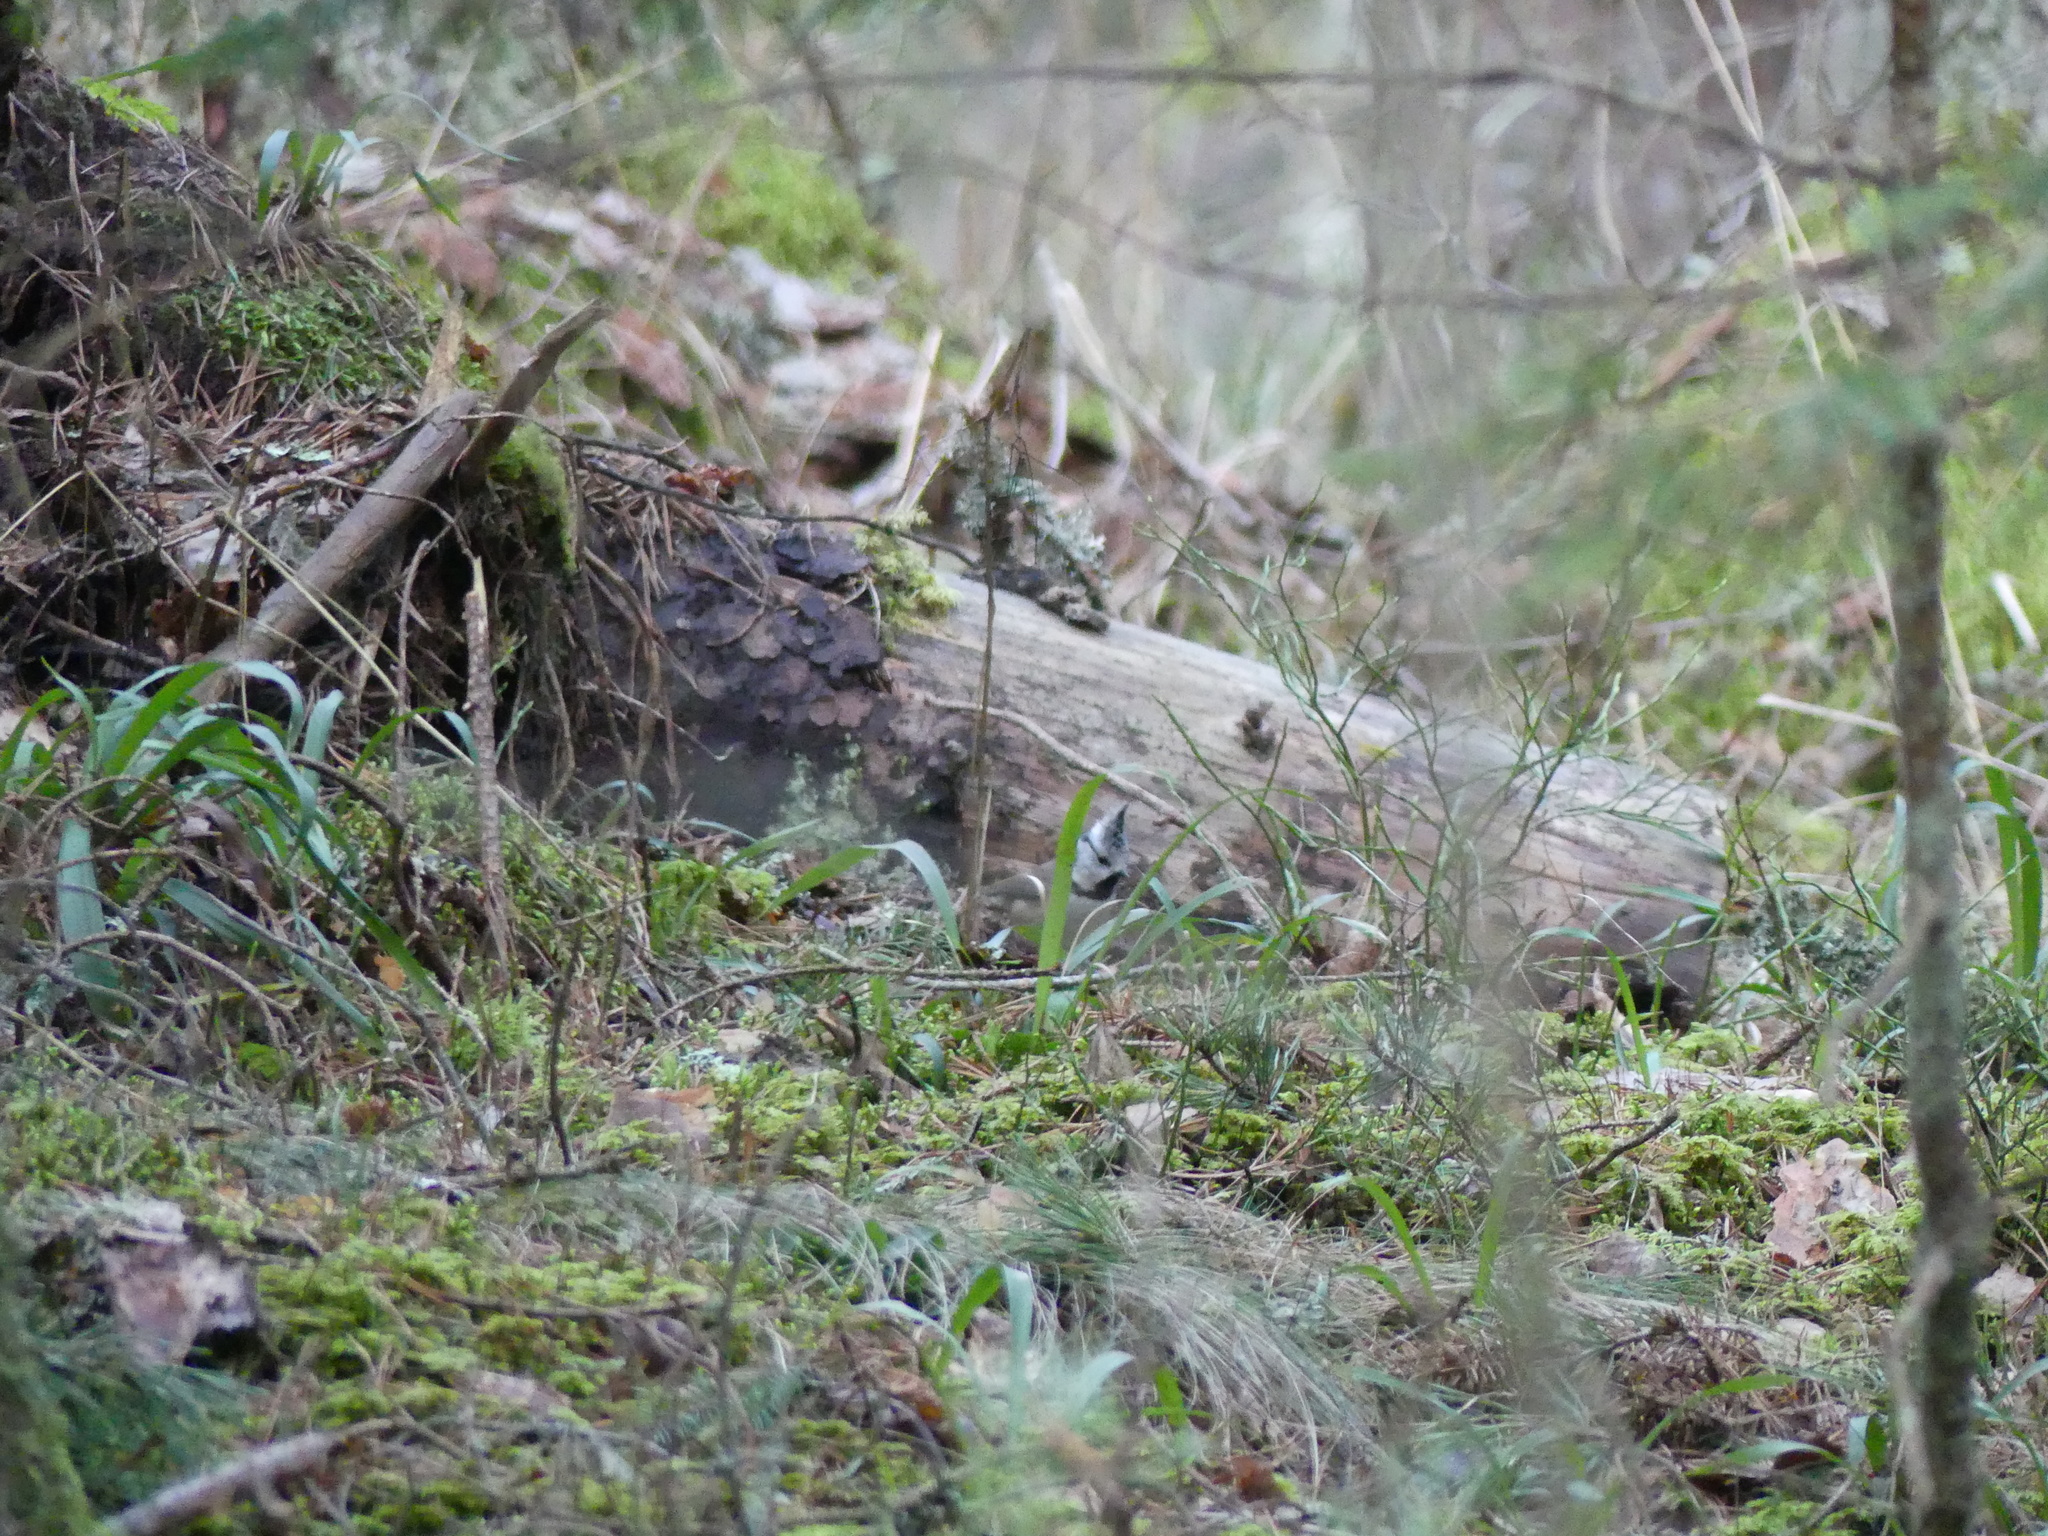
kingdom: Animalia
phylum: Chordata
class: Aves
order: Passeriformes
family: Paridae
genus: Lophophanes
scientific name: Lophophanes cristatus
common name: European crested tit
